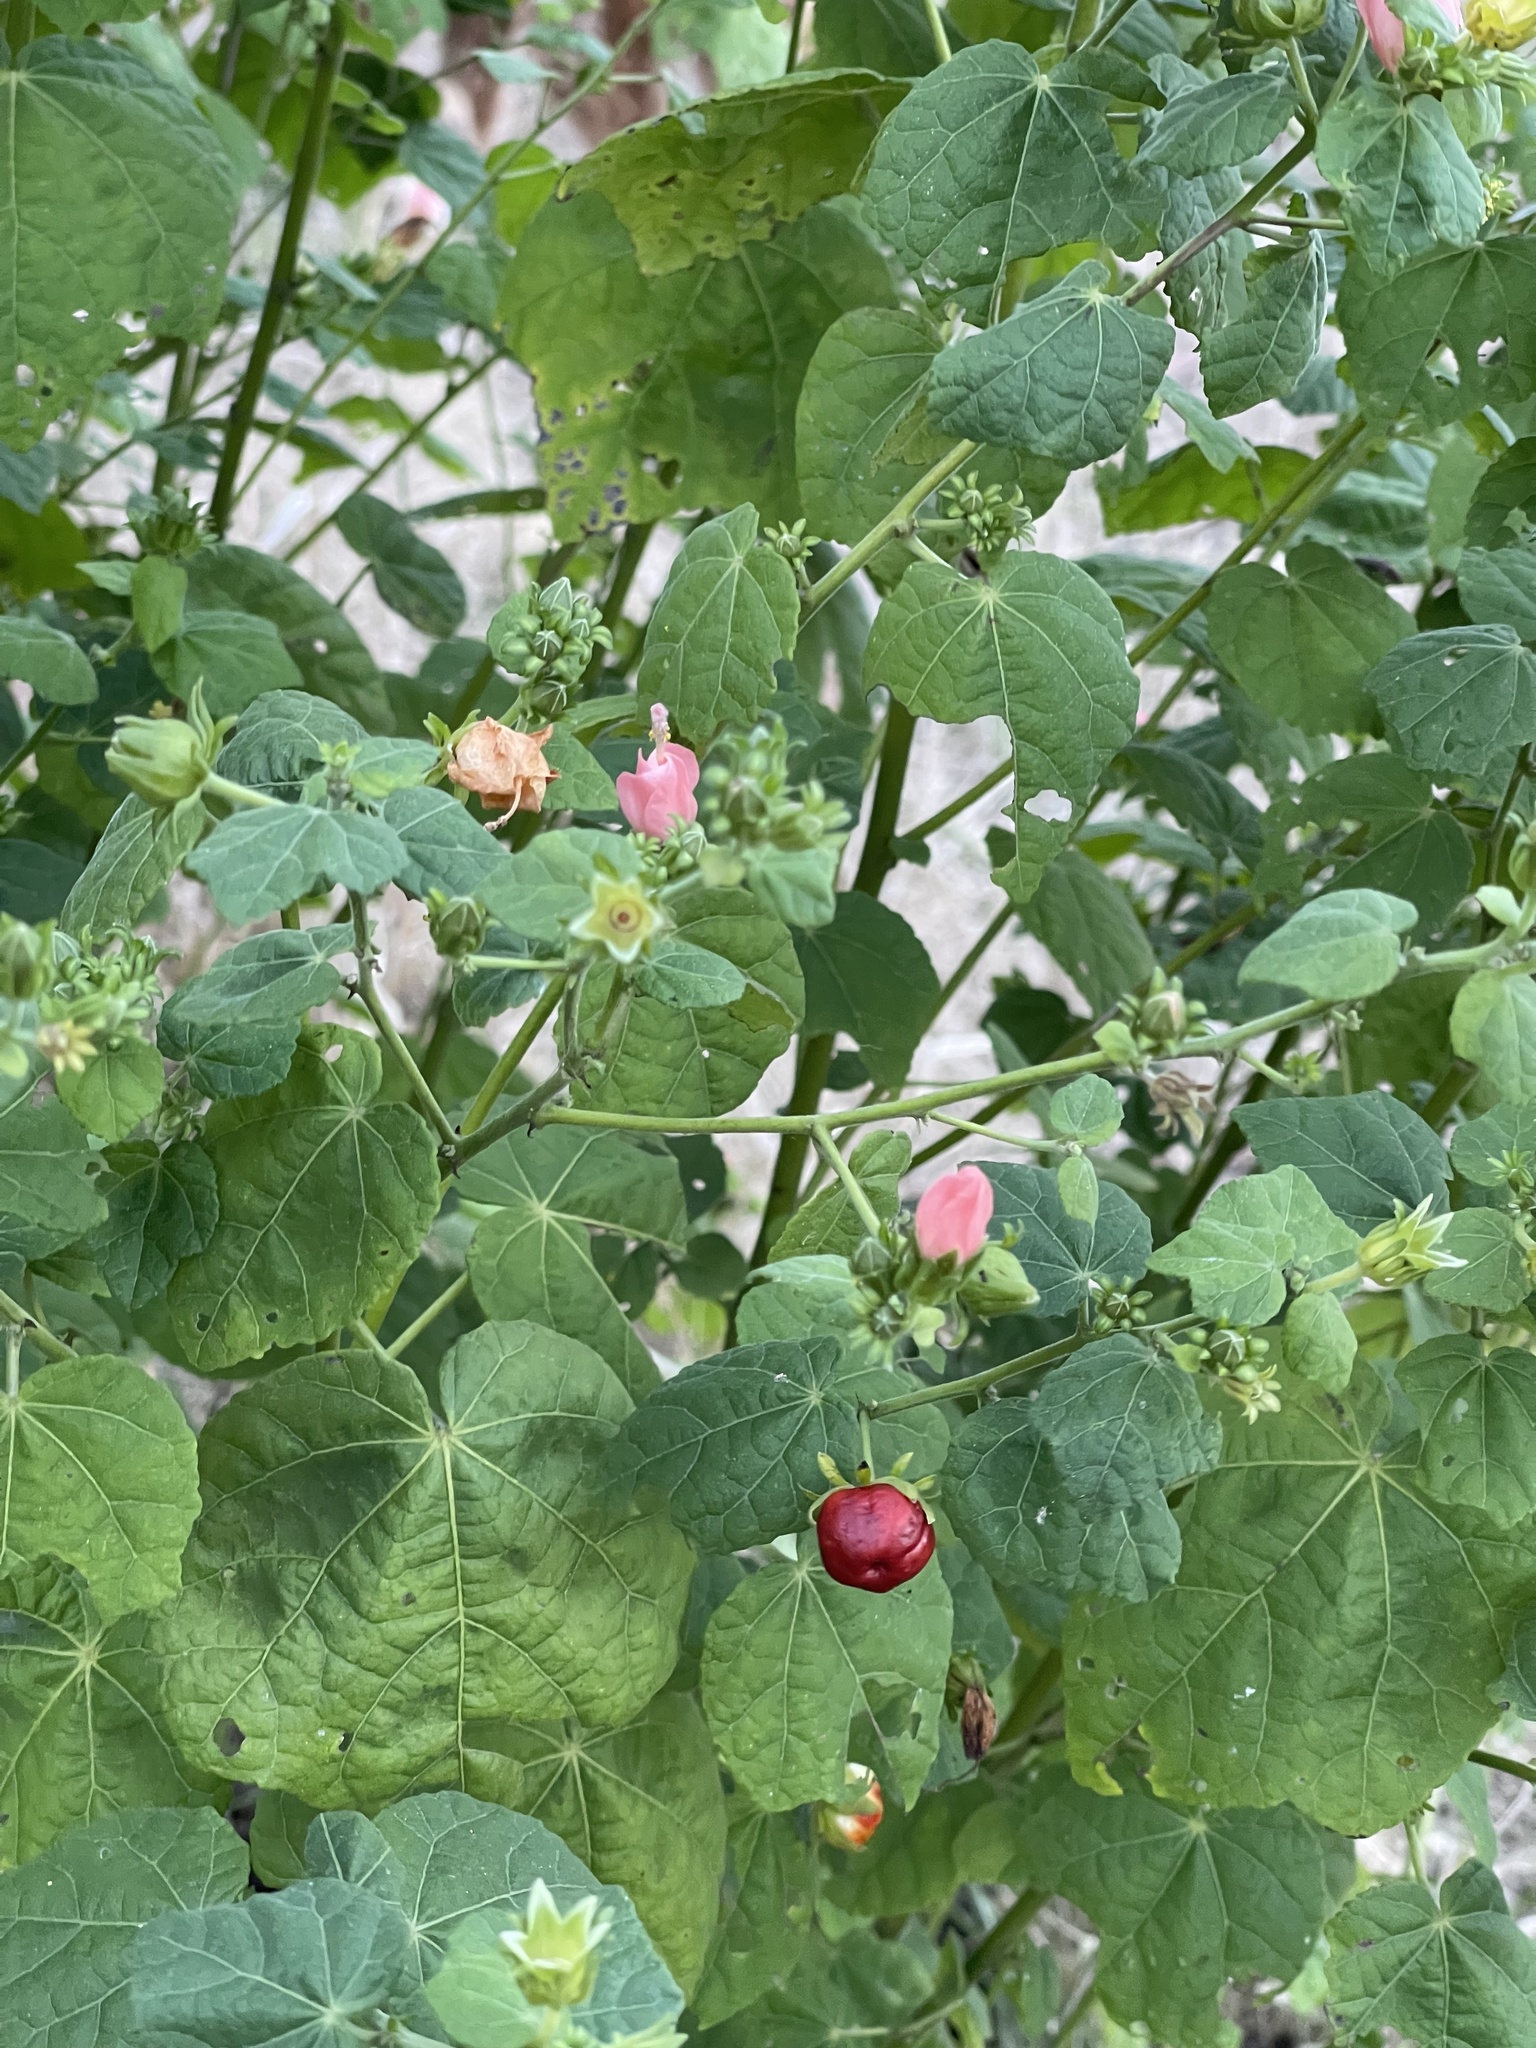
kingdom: Plantae
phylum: Tracheophyta
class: Magnoliopsida
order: Malvales
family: Malvaceae
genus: Malvaviscus
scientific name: Malvaviscus arboreus
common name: Wax mallow
